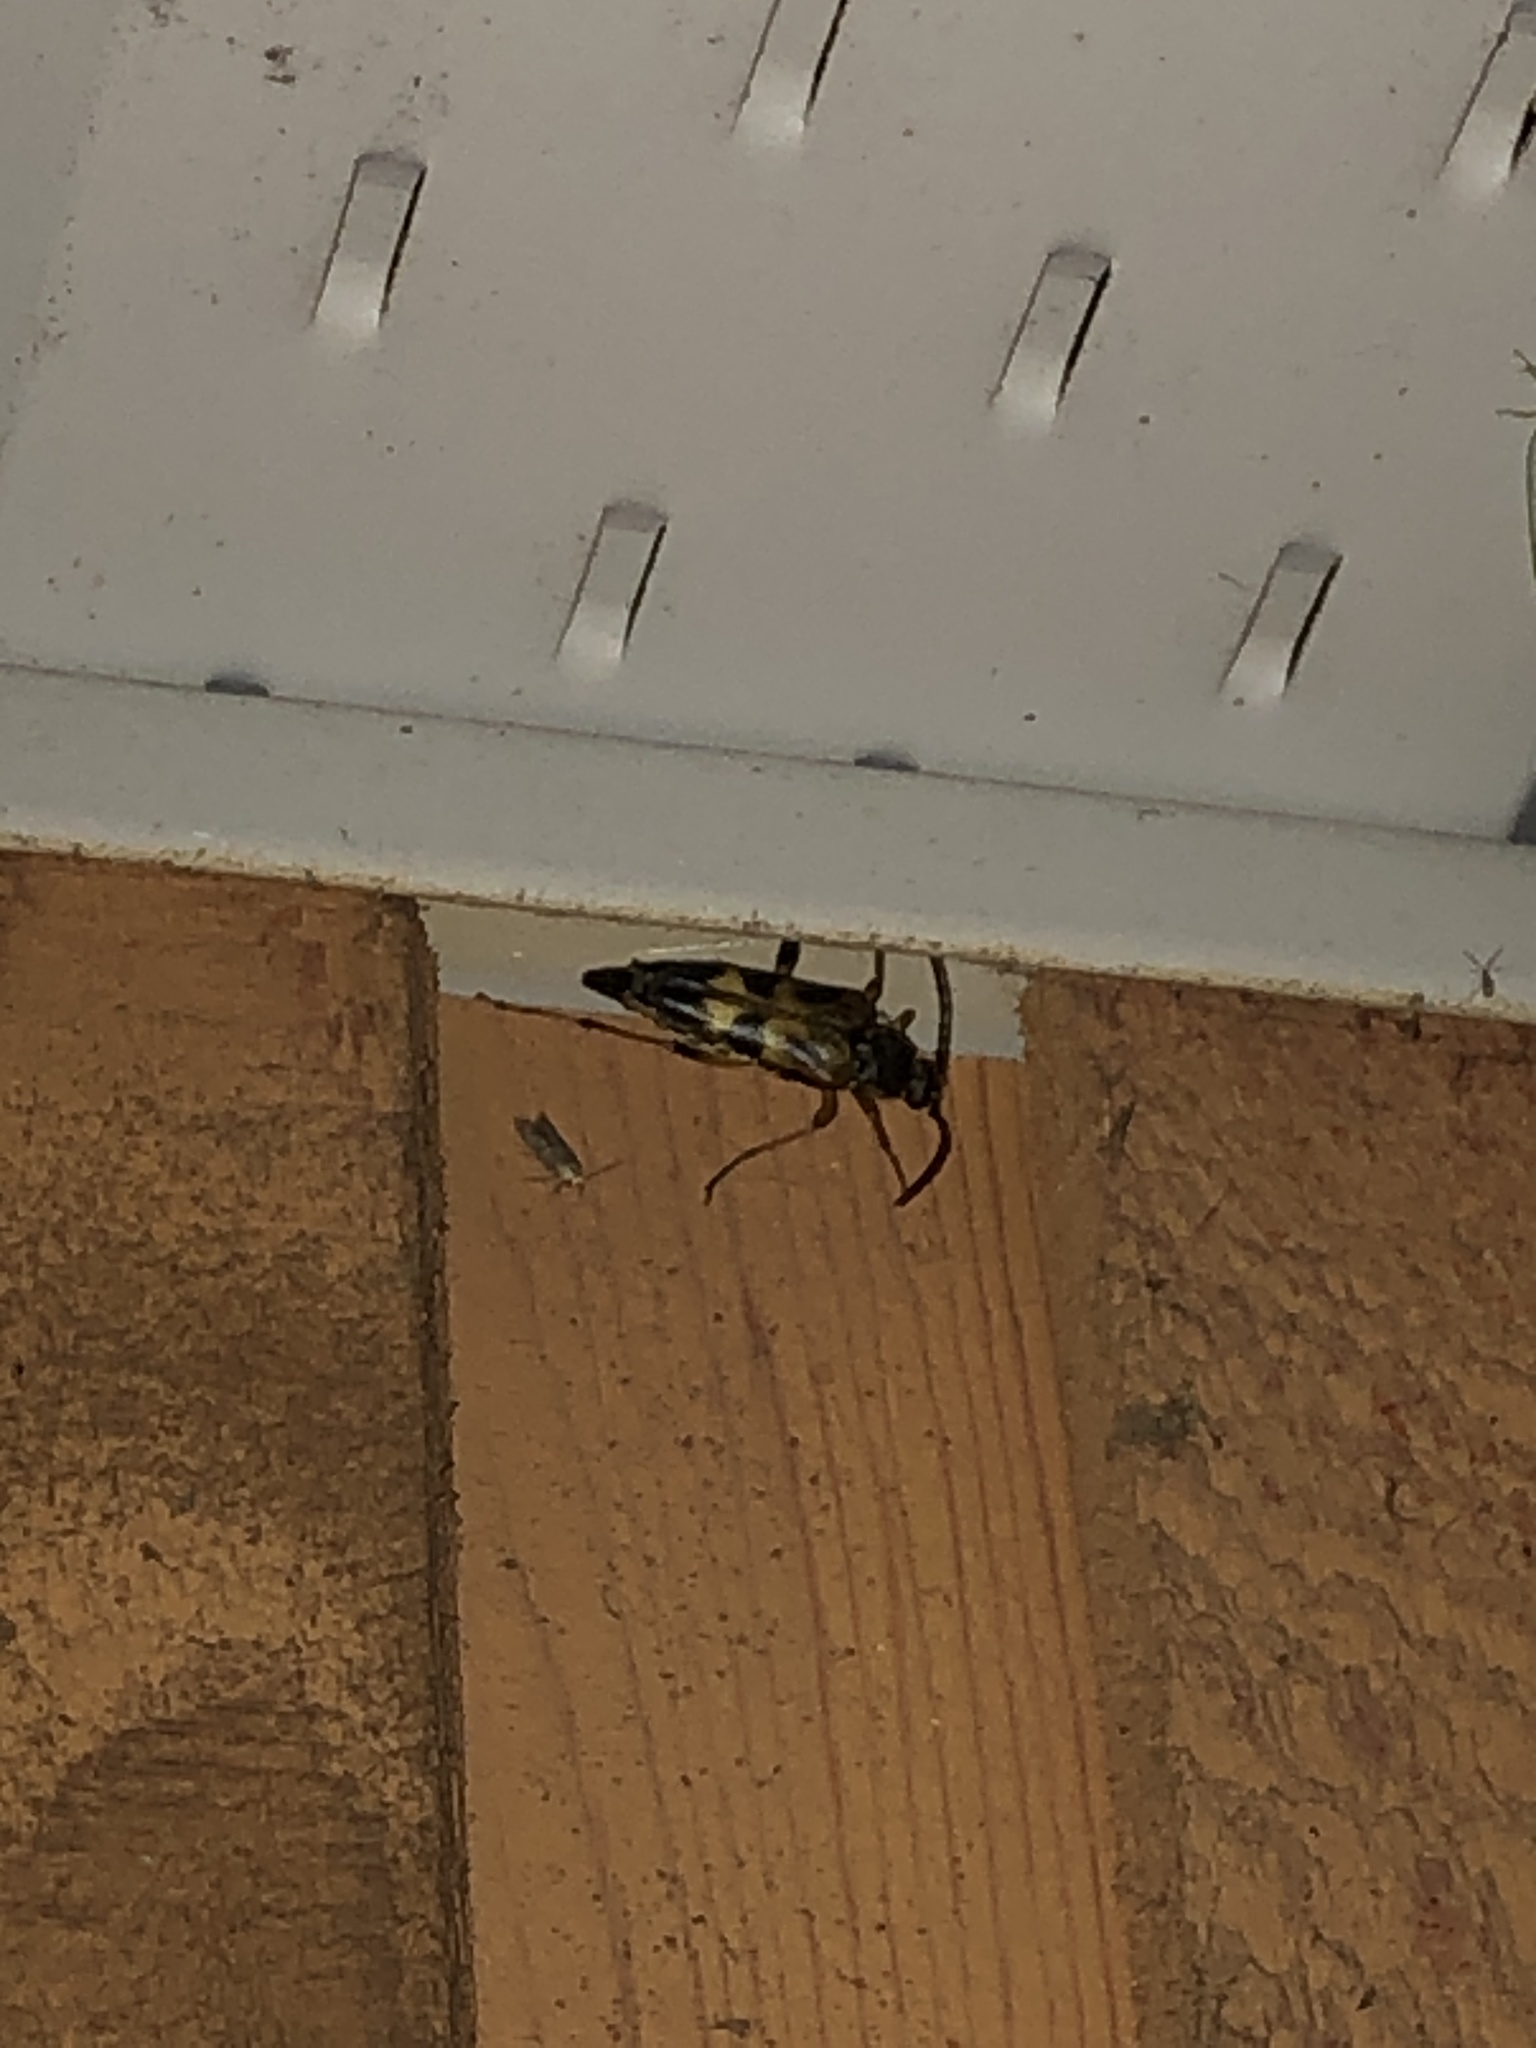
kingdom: Animalia
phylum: Arthropoda
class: Insecta
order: Coleoptera
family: Cerambycidae
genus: Etorofus
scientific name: Etorofus obliteratus
